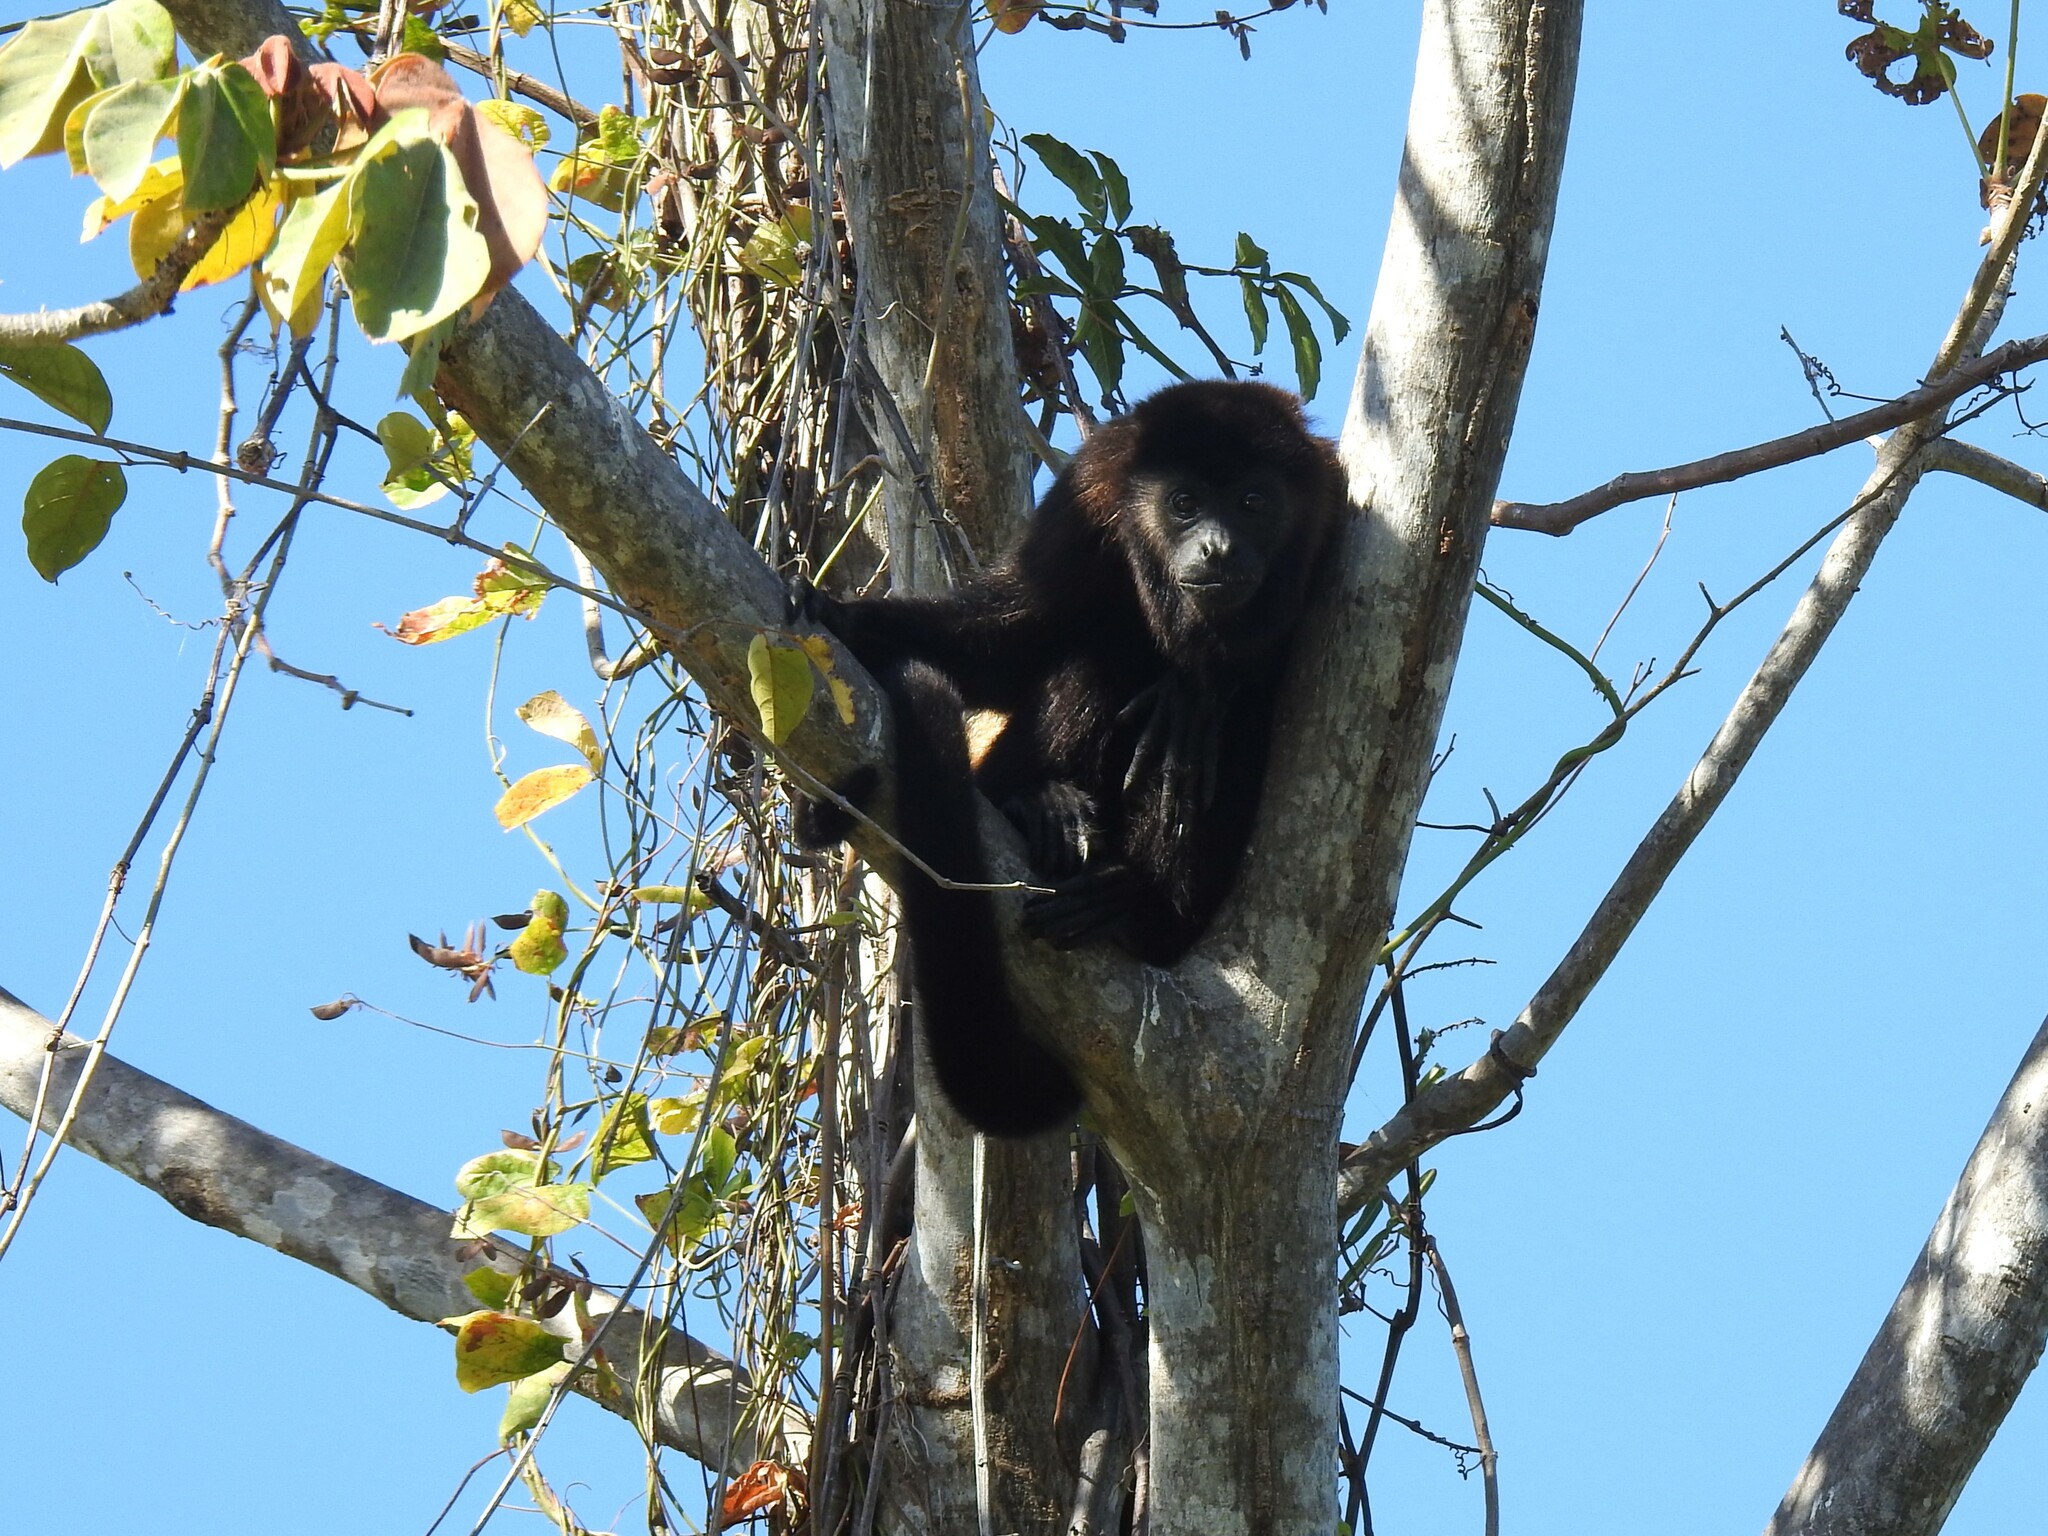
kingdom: Animalia
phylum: Chordata
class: Mammalia
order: Primates
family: Atelidae
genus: Alouatta
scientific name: Alouatta palliata
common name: Mantled howler
